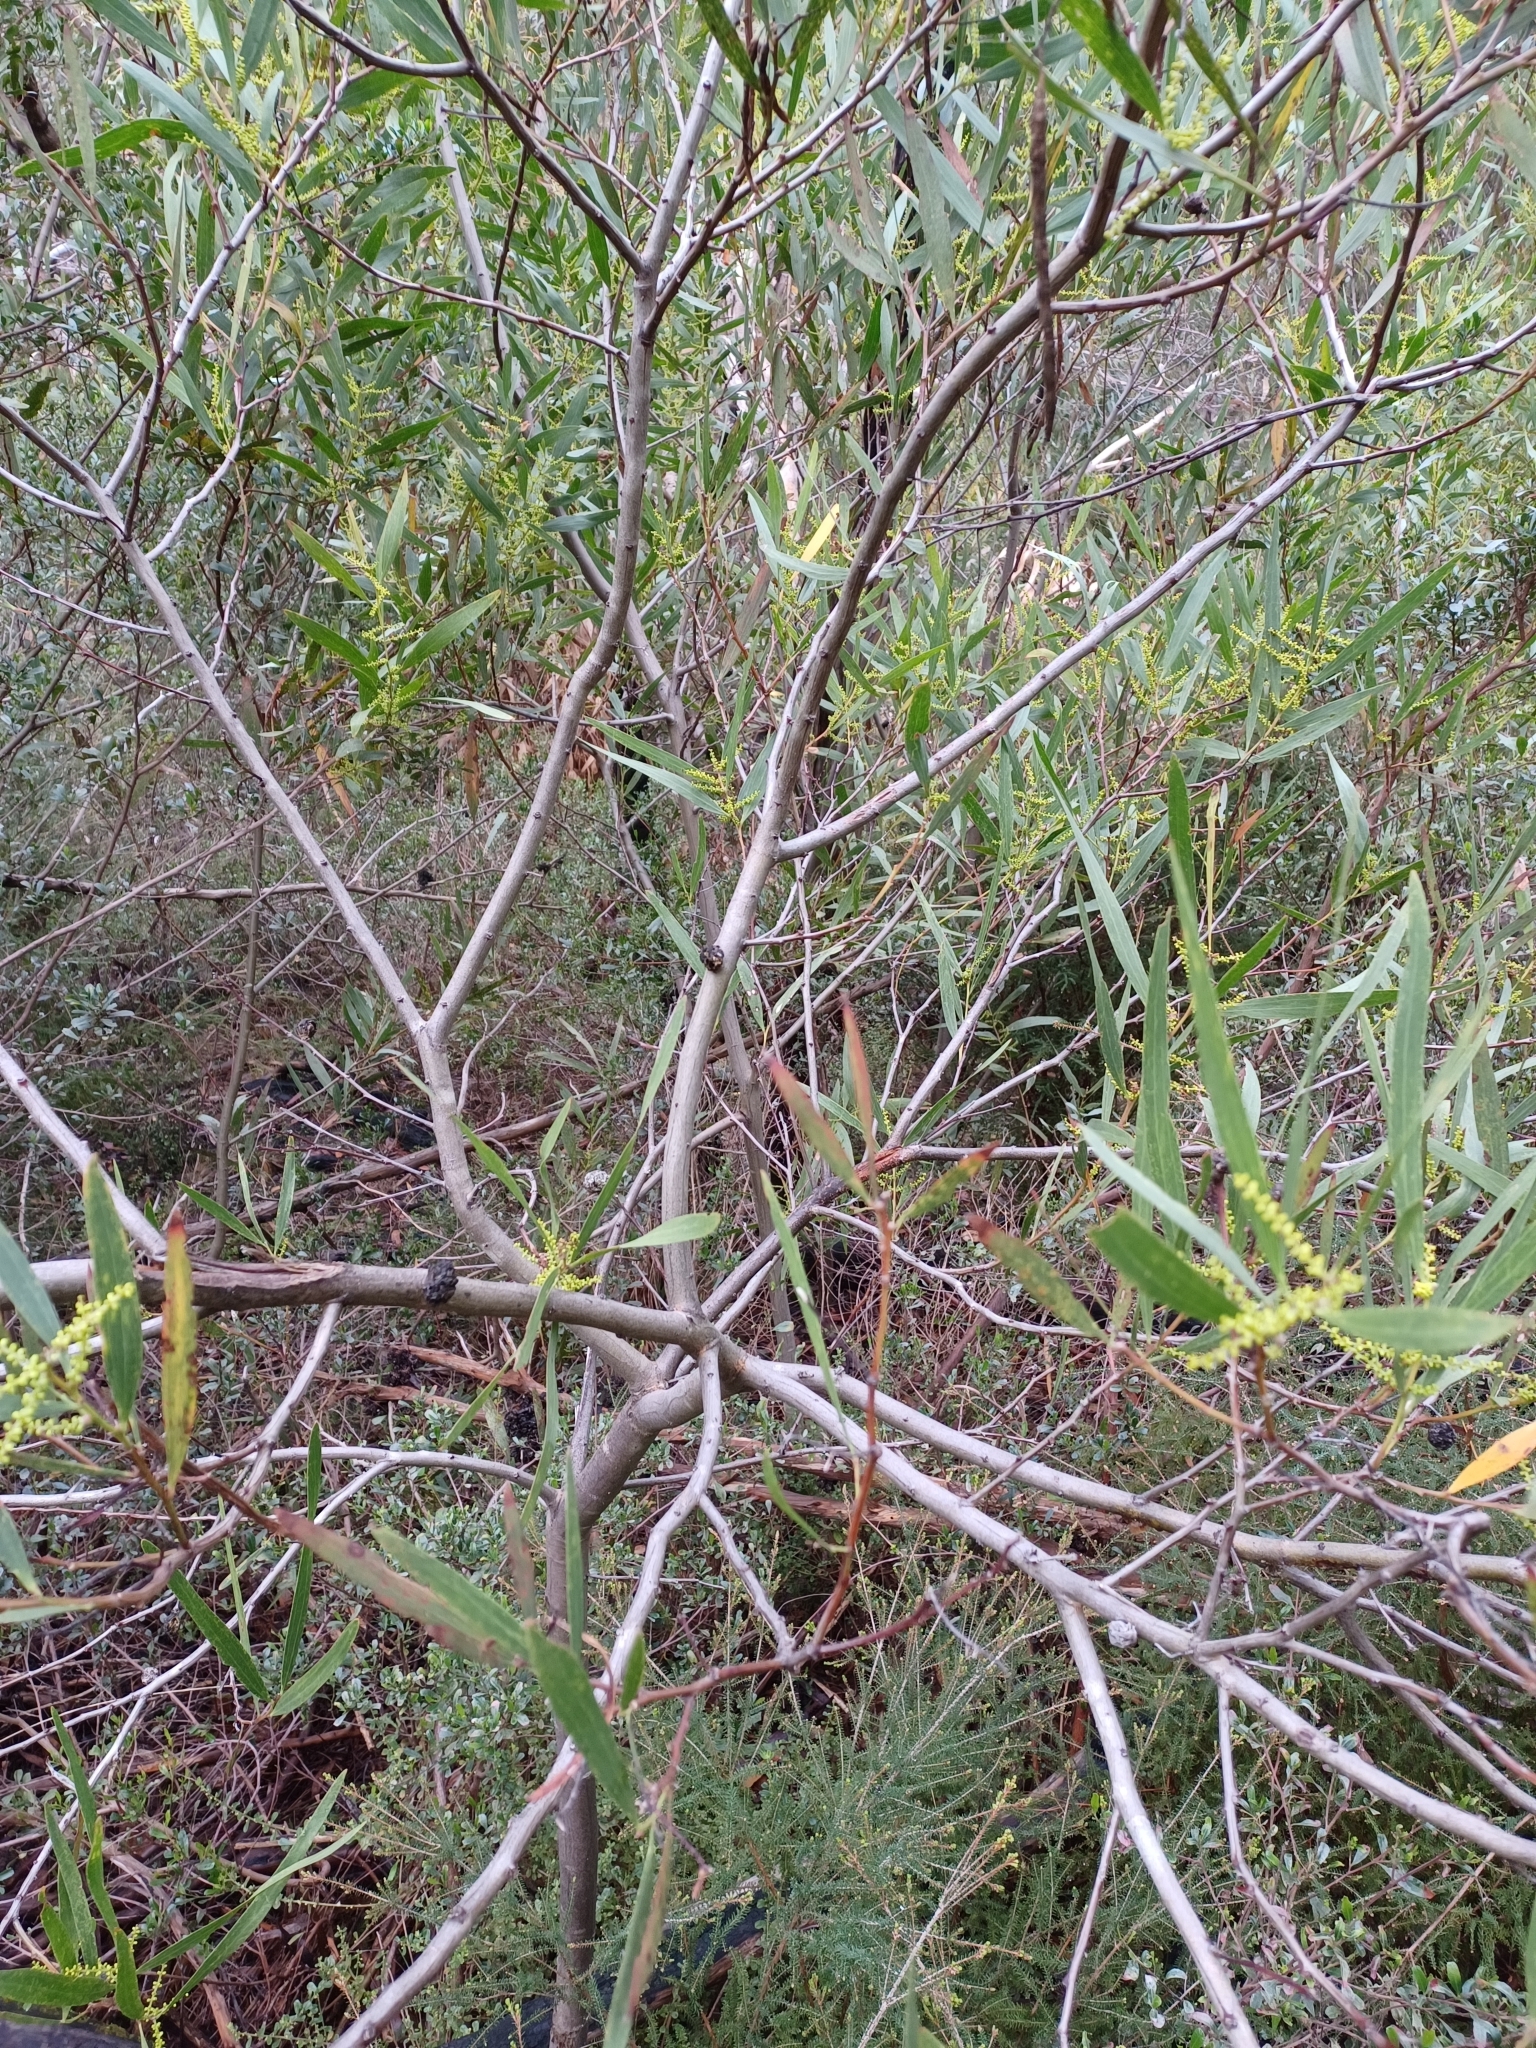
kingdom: Plantae
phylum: Tracheophyta
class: Magnoliopsida
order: Fabales
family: Fabaceae
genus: Acacia
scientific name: Acacia longifolia
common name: Sydney golden wattle
